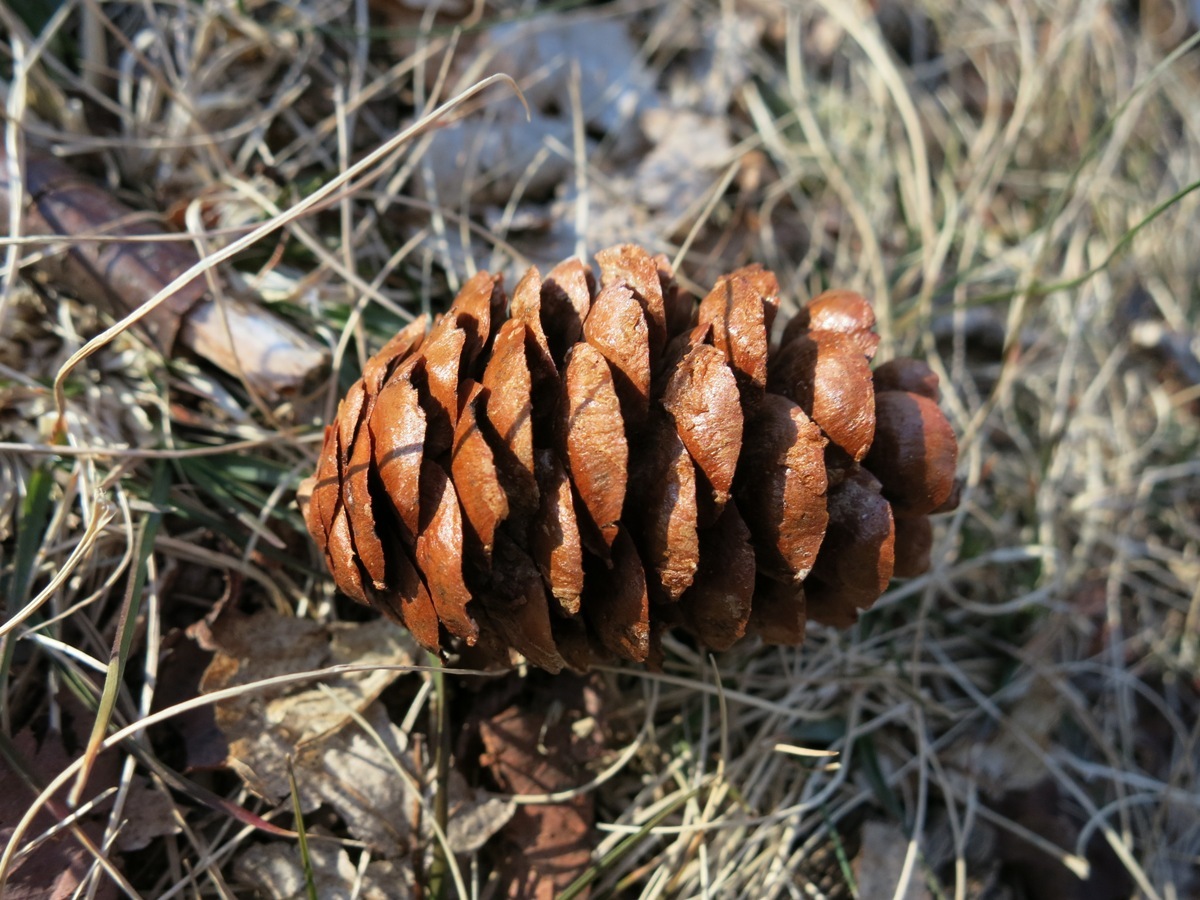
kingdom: Plantae
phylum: Tracheophyta
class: Pinopsida
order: Pinales
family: Pinaceae
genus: Picea
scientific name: Picea rubens
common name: Red spruce
